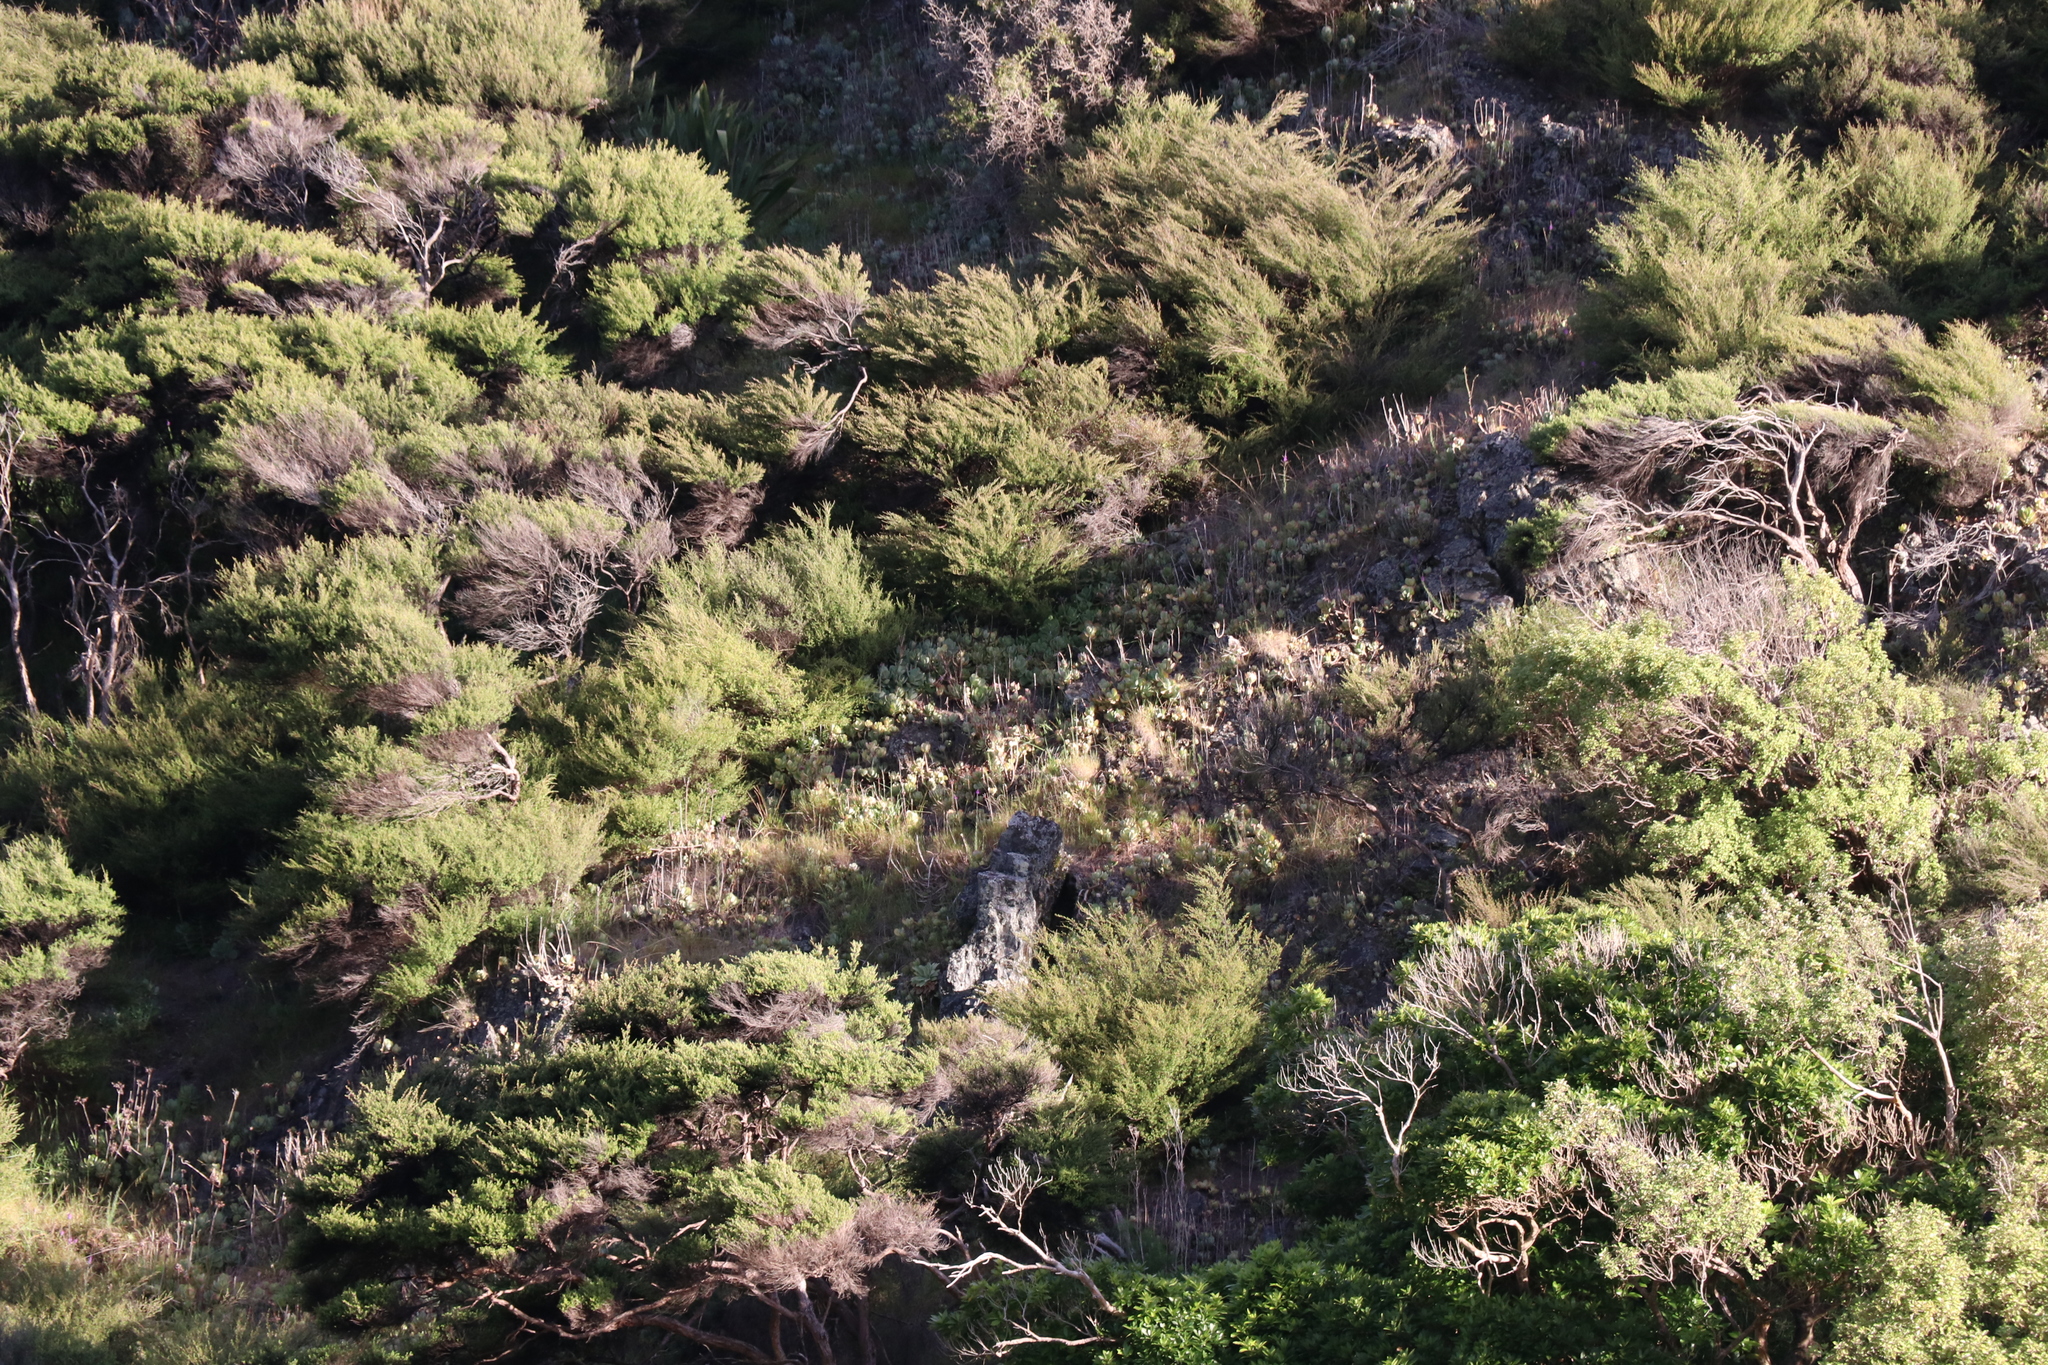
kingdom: Plantae
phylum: Tracheophyta
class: Magnoliopsida
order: Saxifragales
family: Crassulaceae
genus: Cotyledon
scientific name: Cotyledon orbiculata
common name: Pig's ear
